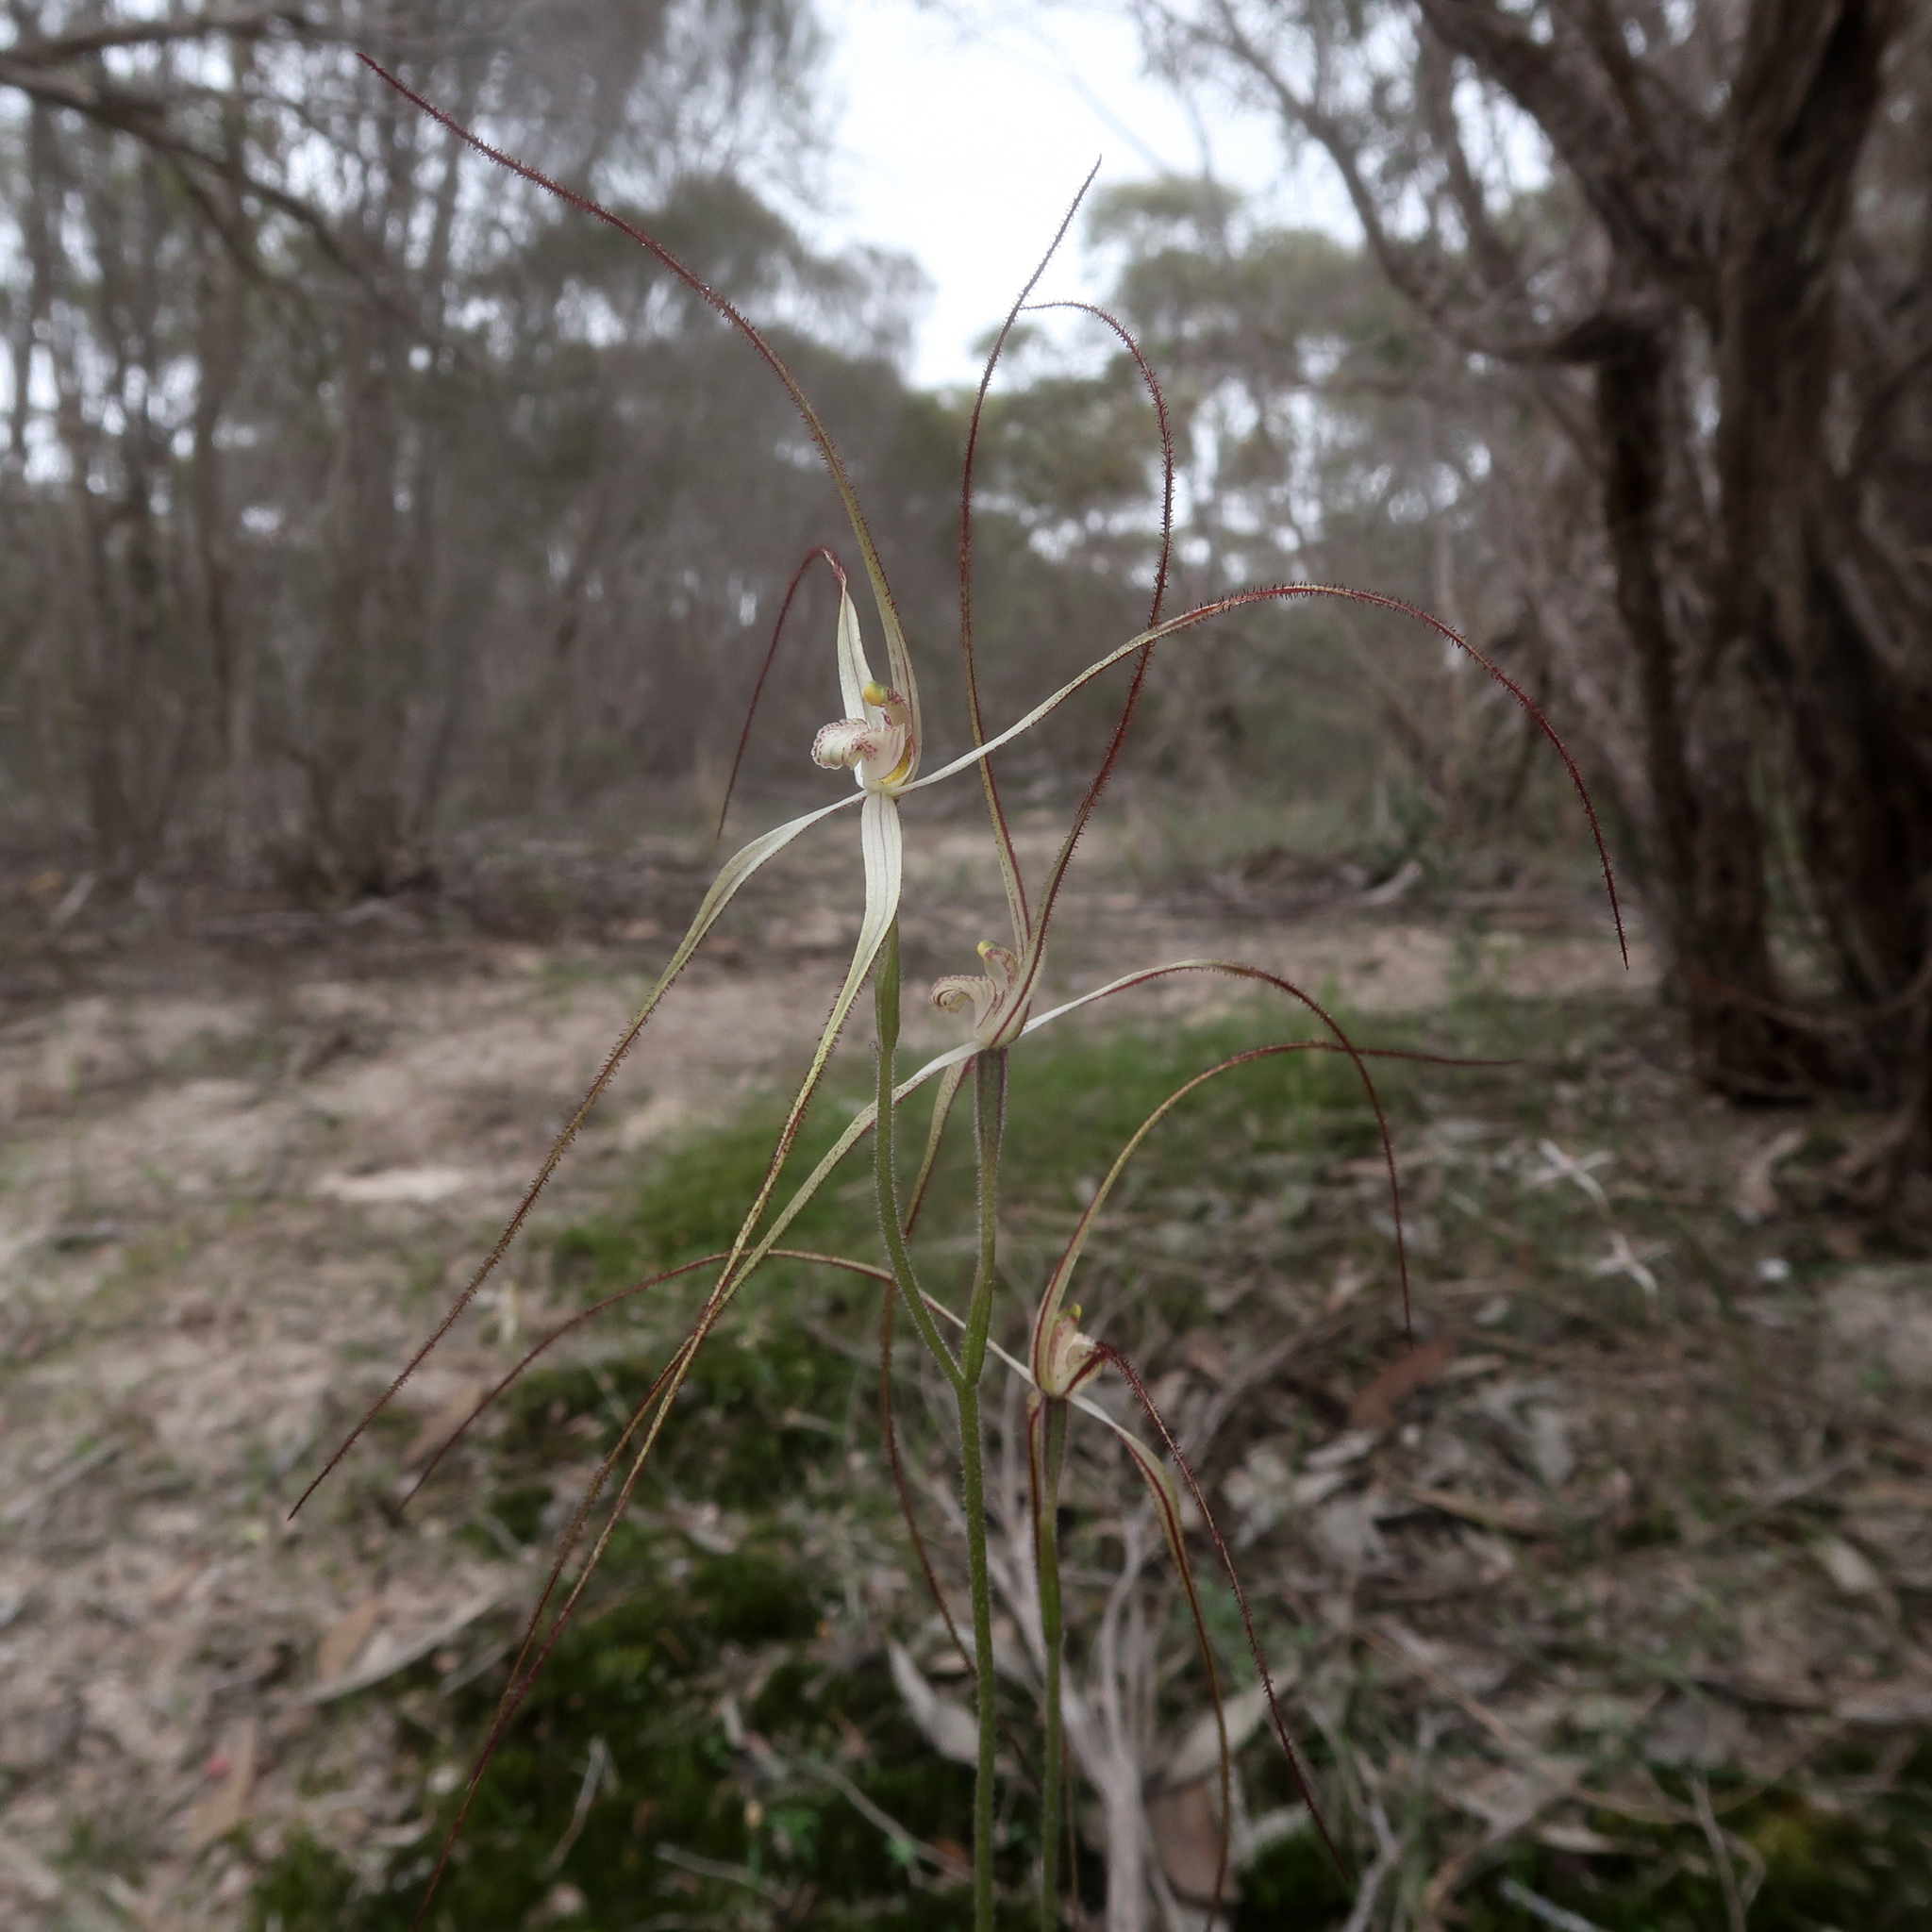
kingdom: Plantae
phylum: Tracheophyta
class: Liliopsida
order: Asparagales
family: Orchidaceae
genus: Caladenia
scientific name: Caladenia capillata
